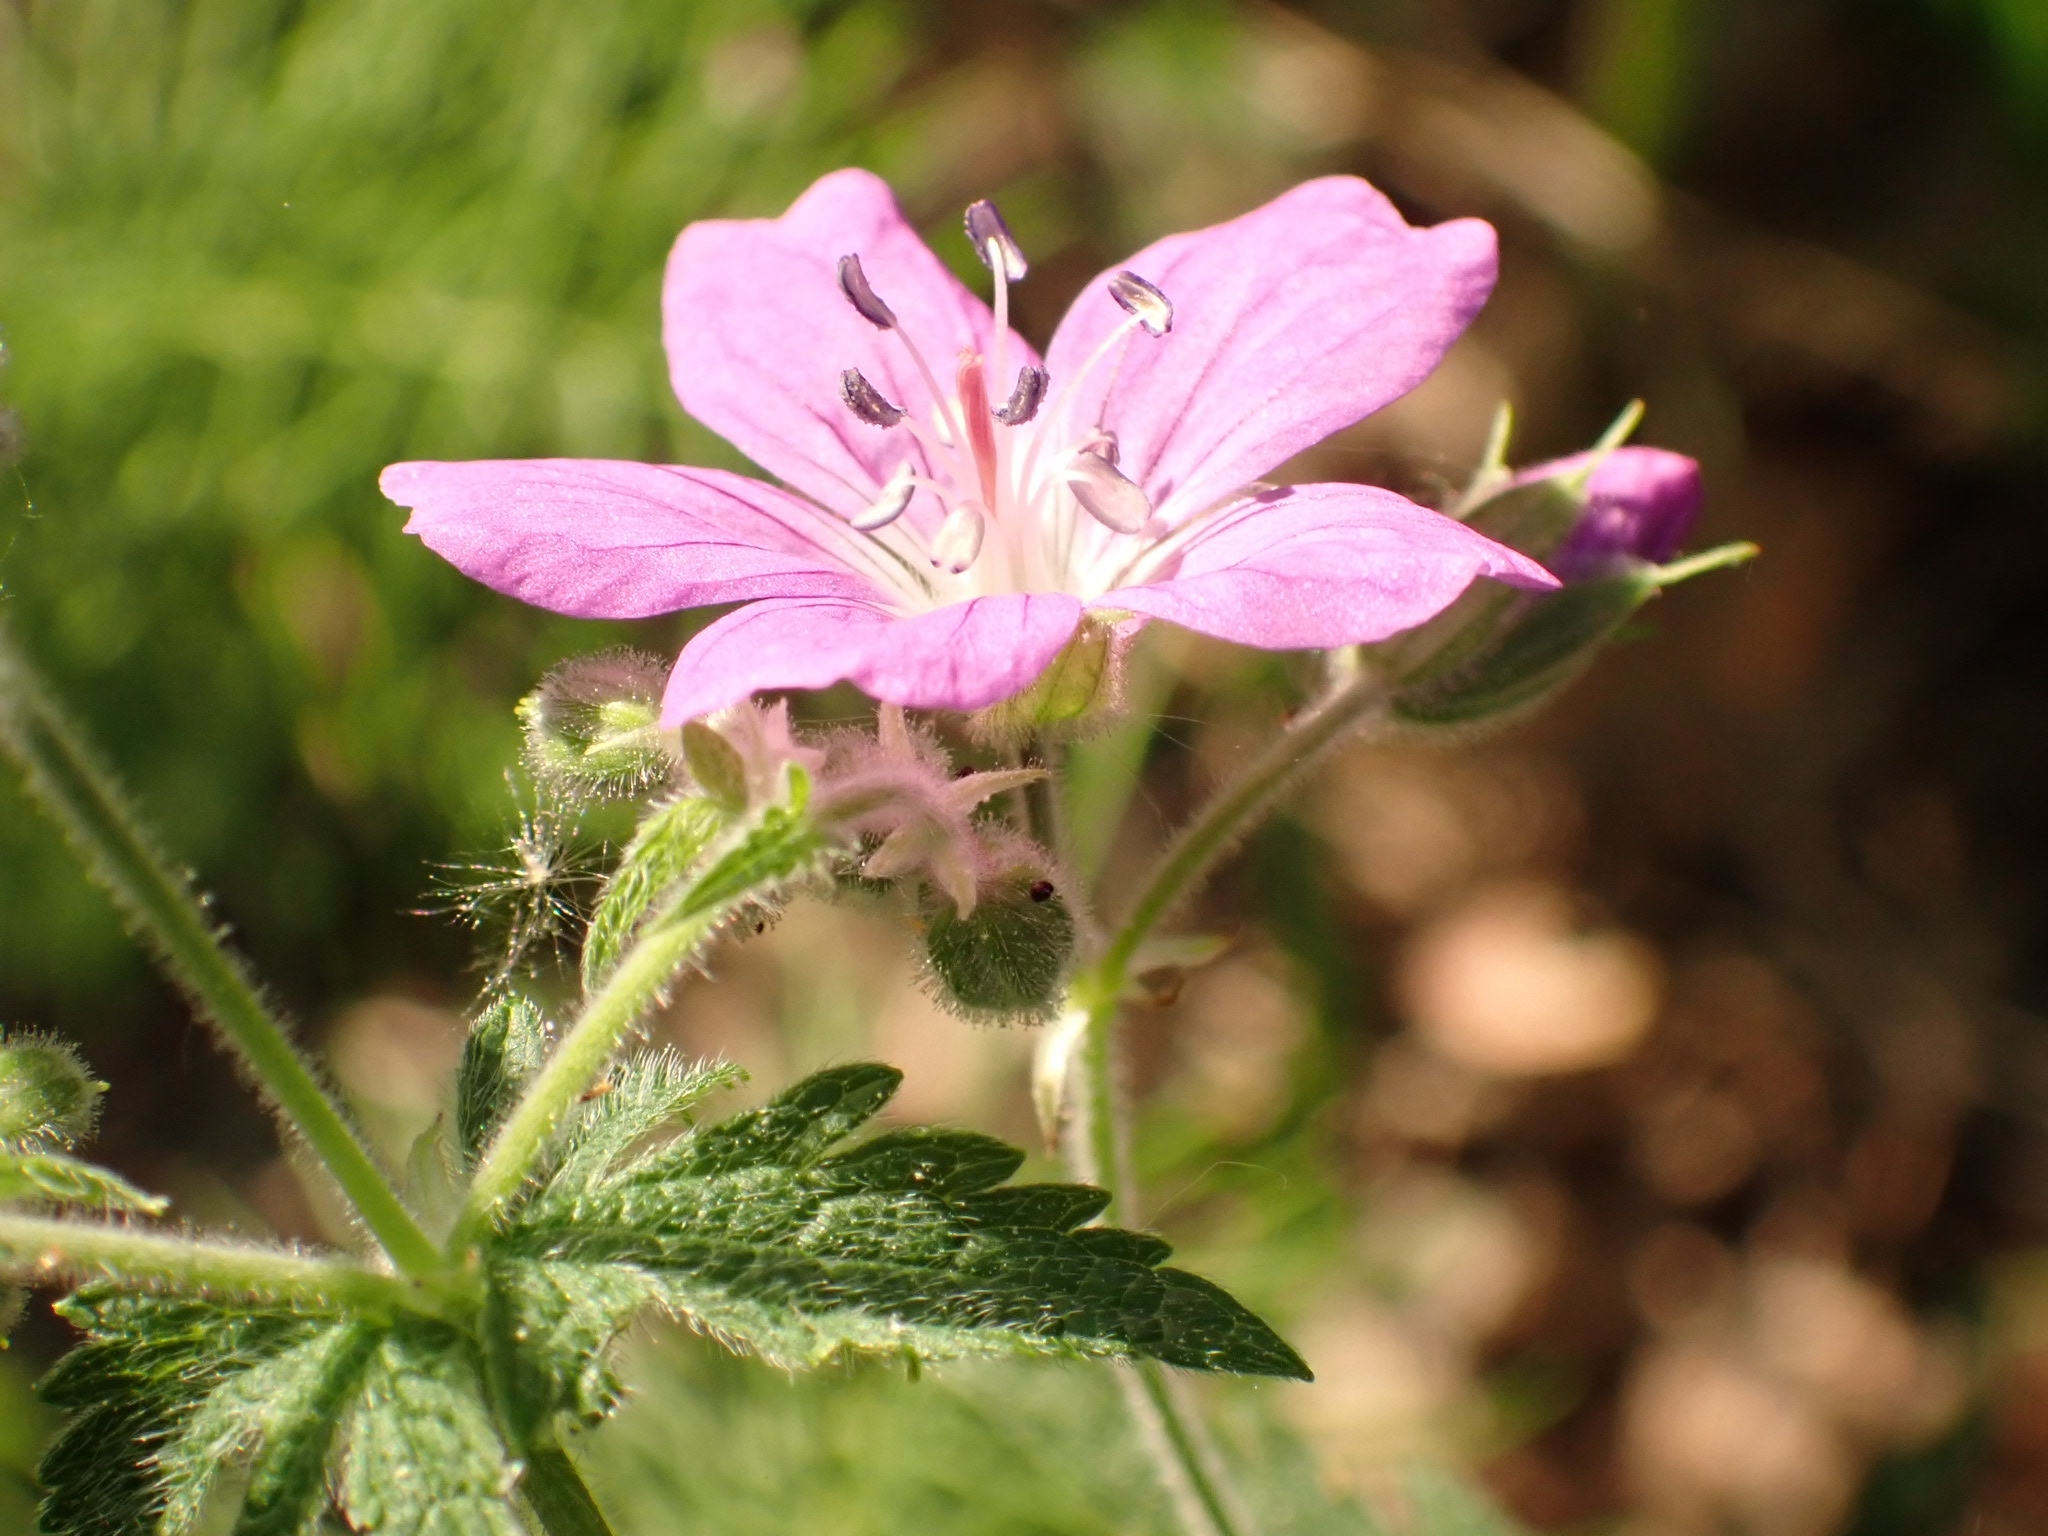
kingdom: Plantae
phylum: Tracheophyta
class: Magnoliopsida
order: Geraniales
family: Geraniaceae
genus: Geranium
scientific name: Geranium sylvaticum
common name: Wood crane's-bill
